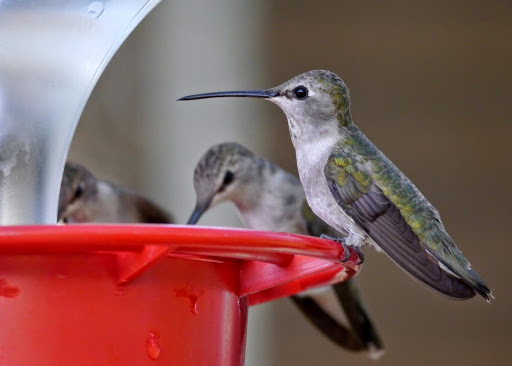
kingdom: Animalia
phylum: Chordata
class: Aves
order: Apodiformes
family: Trochilidae
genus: Archilochus
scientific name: Archilochus alexandri
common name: Black-chinned hummingbird
